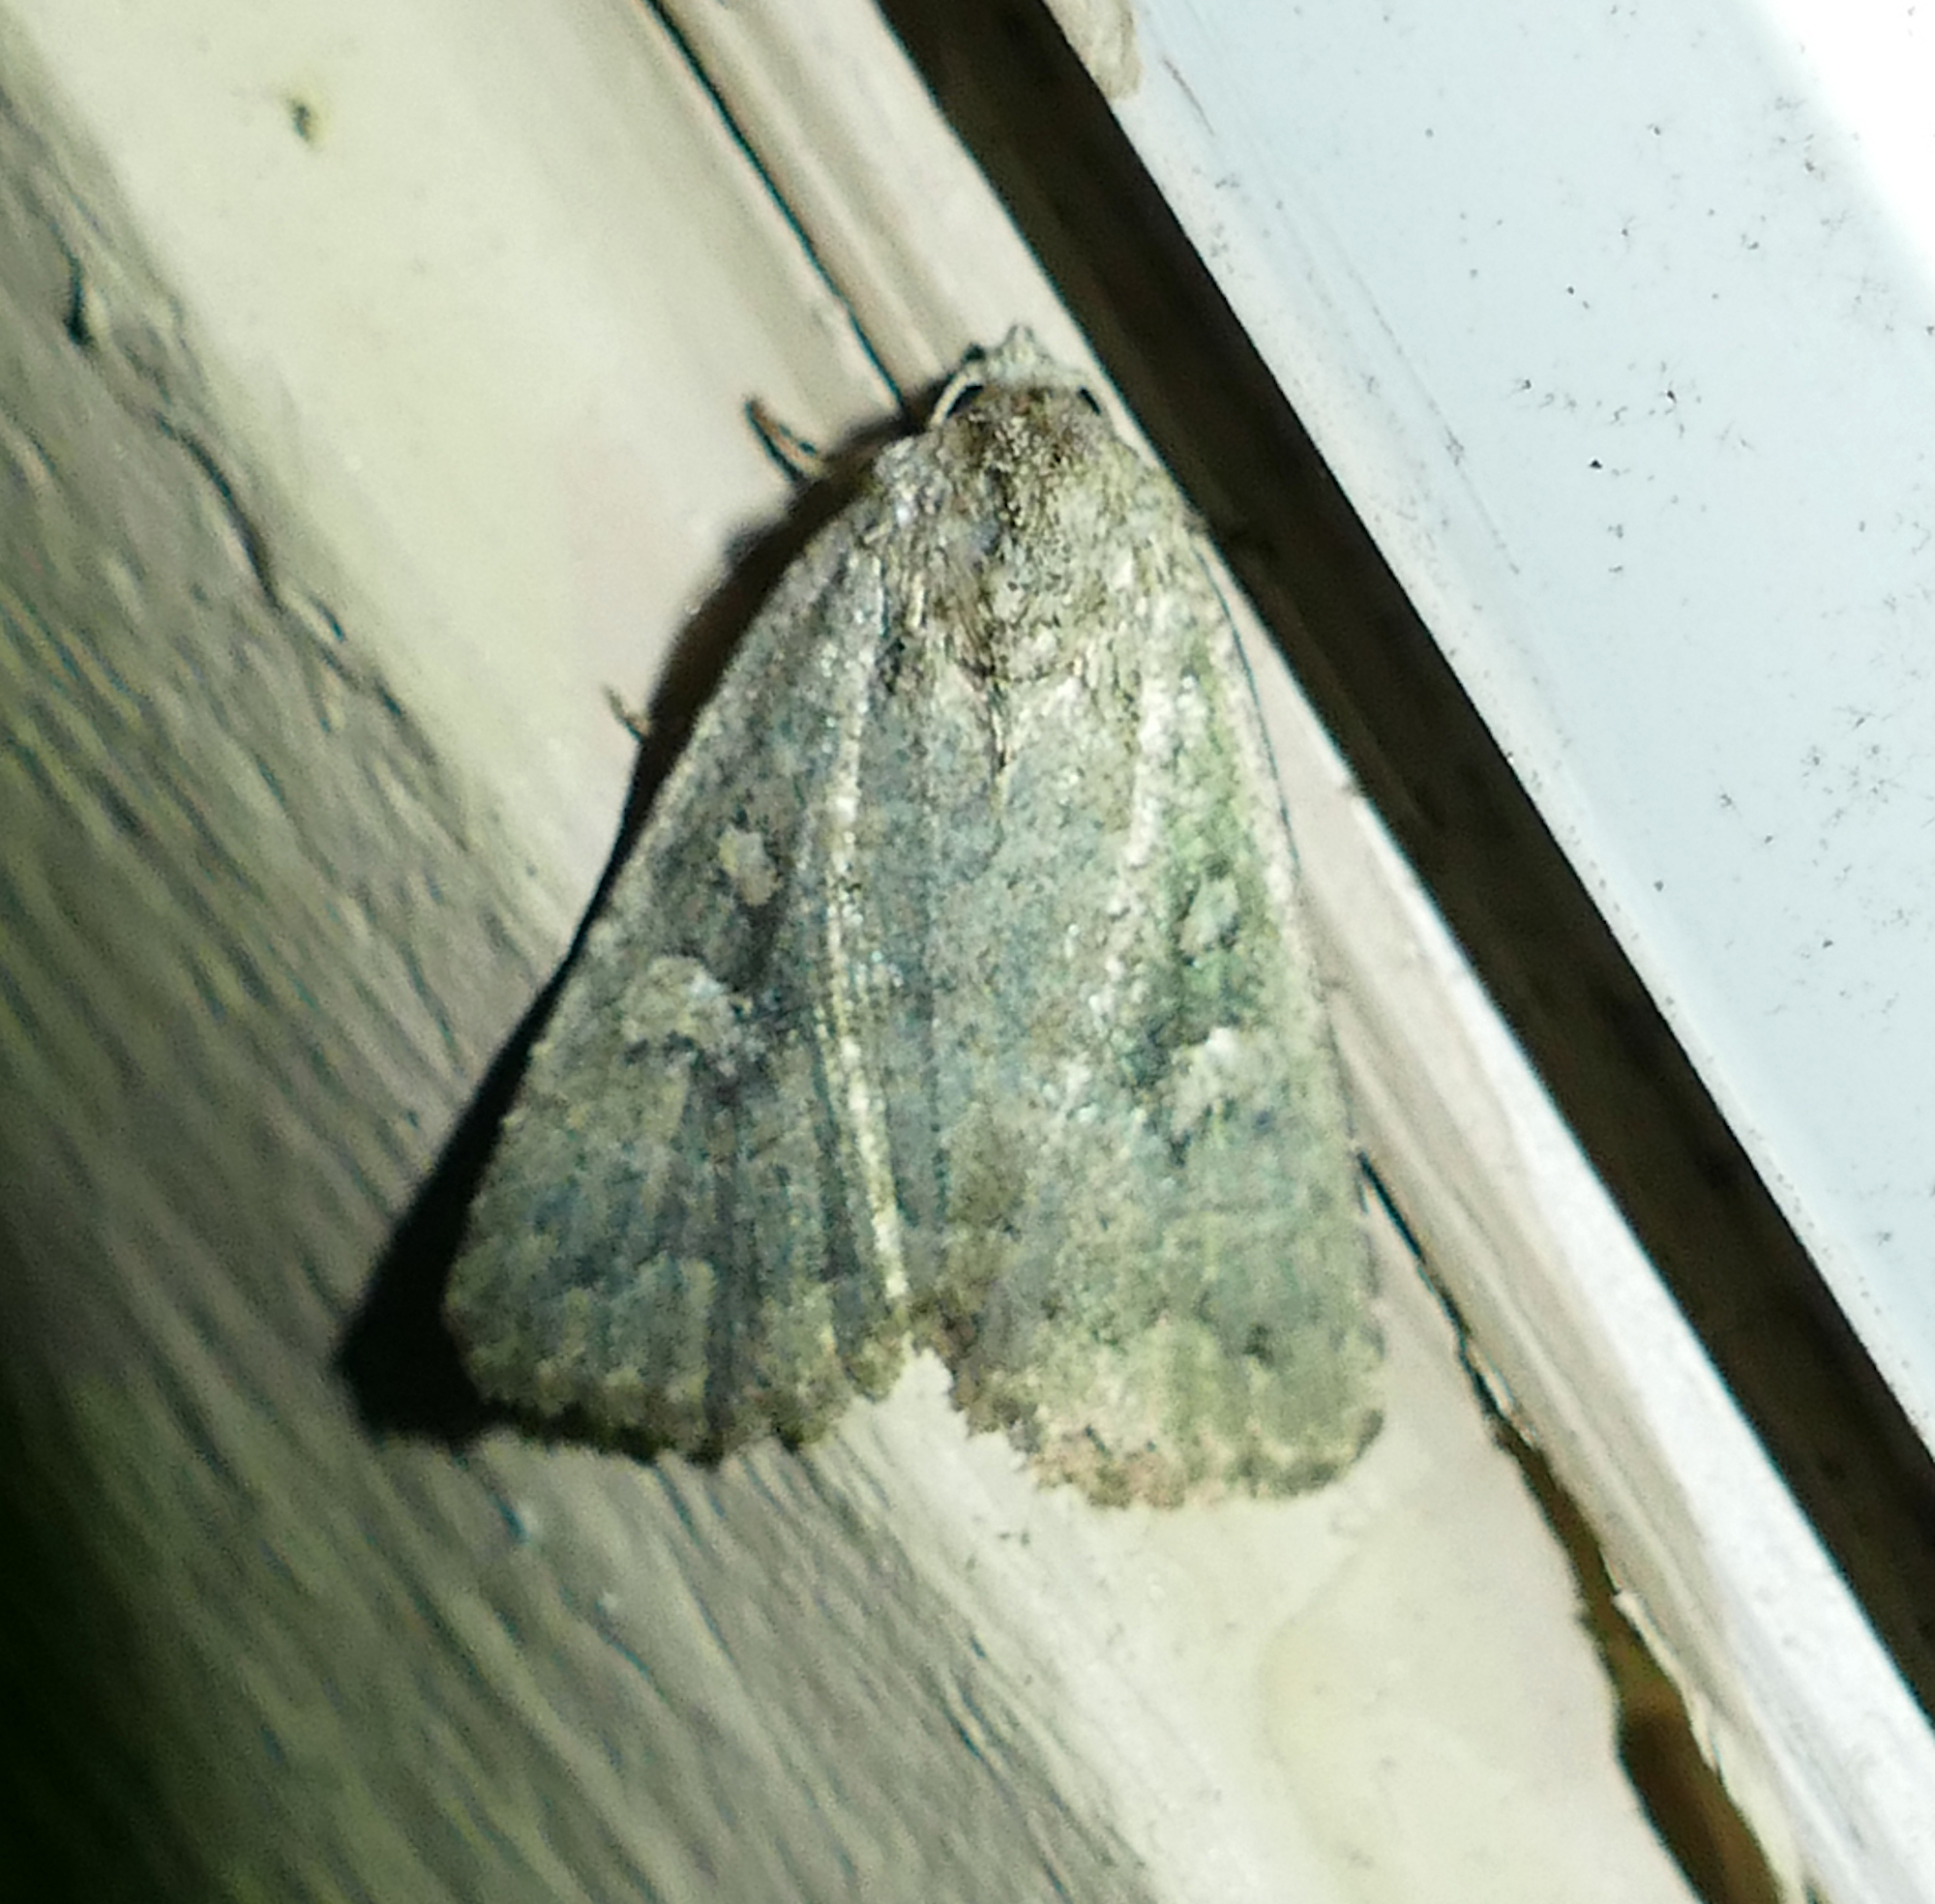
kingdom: Animalia
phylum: Arthropoda
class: Insecta
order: Lepidoptera
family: Noctuidae
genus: Condica
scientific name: Condica sutor
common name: Cobbler moth
